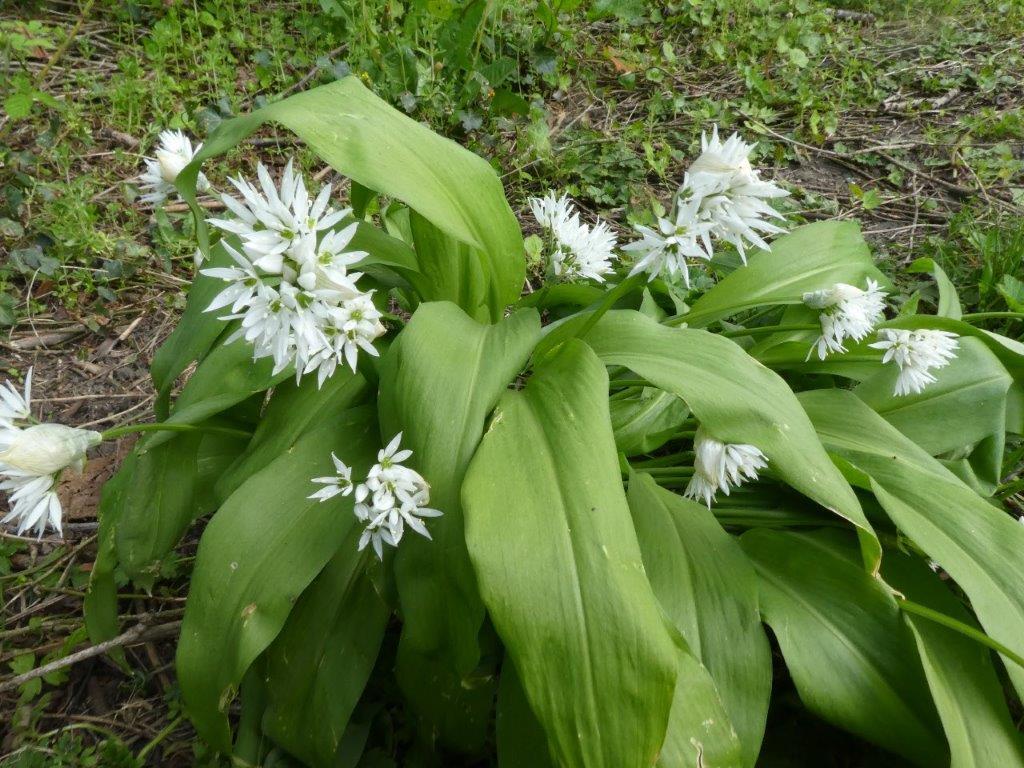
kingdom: Plantae
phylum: Tracheophyta
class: Liliopsida
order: Asparagales
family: Amaryllidaceae
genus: Allium
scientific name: Allium ursinum
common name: Ramsons
